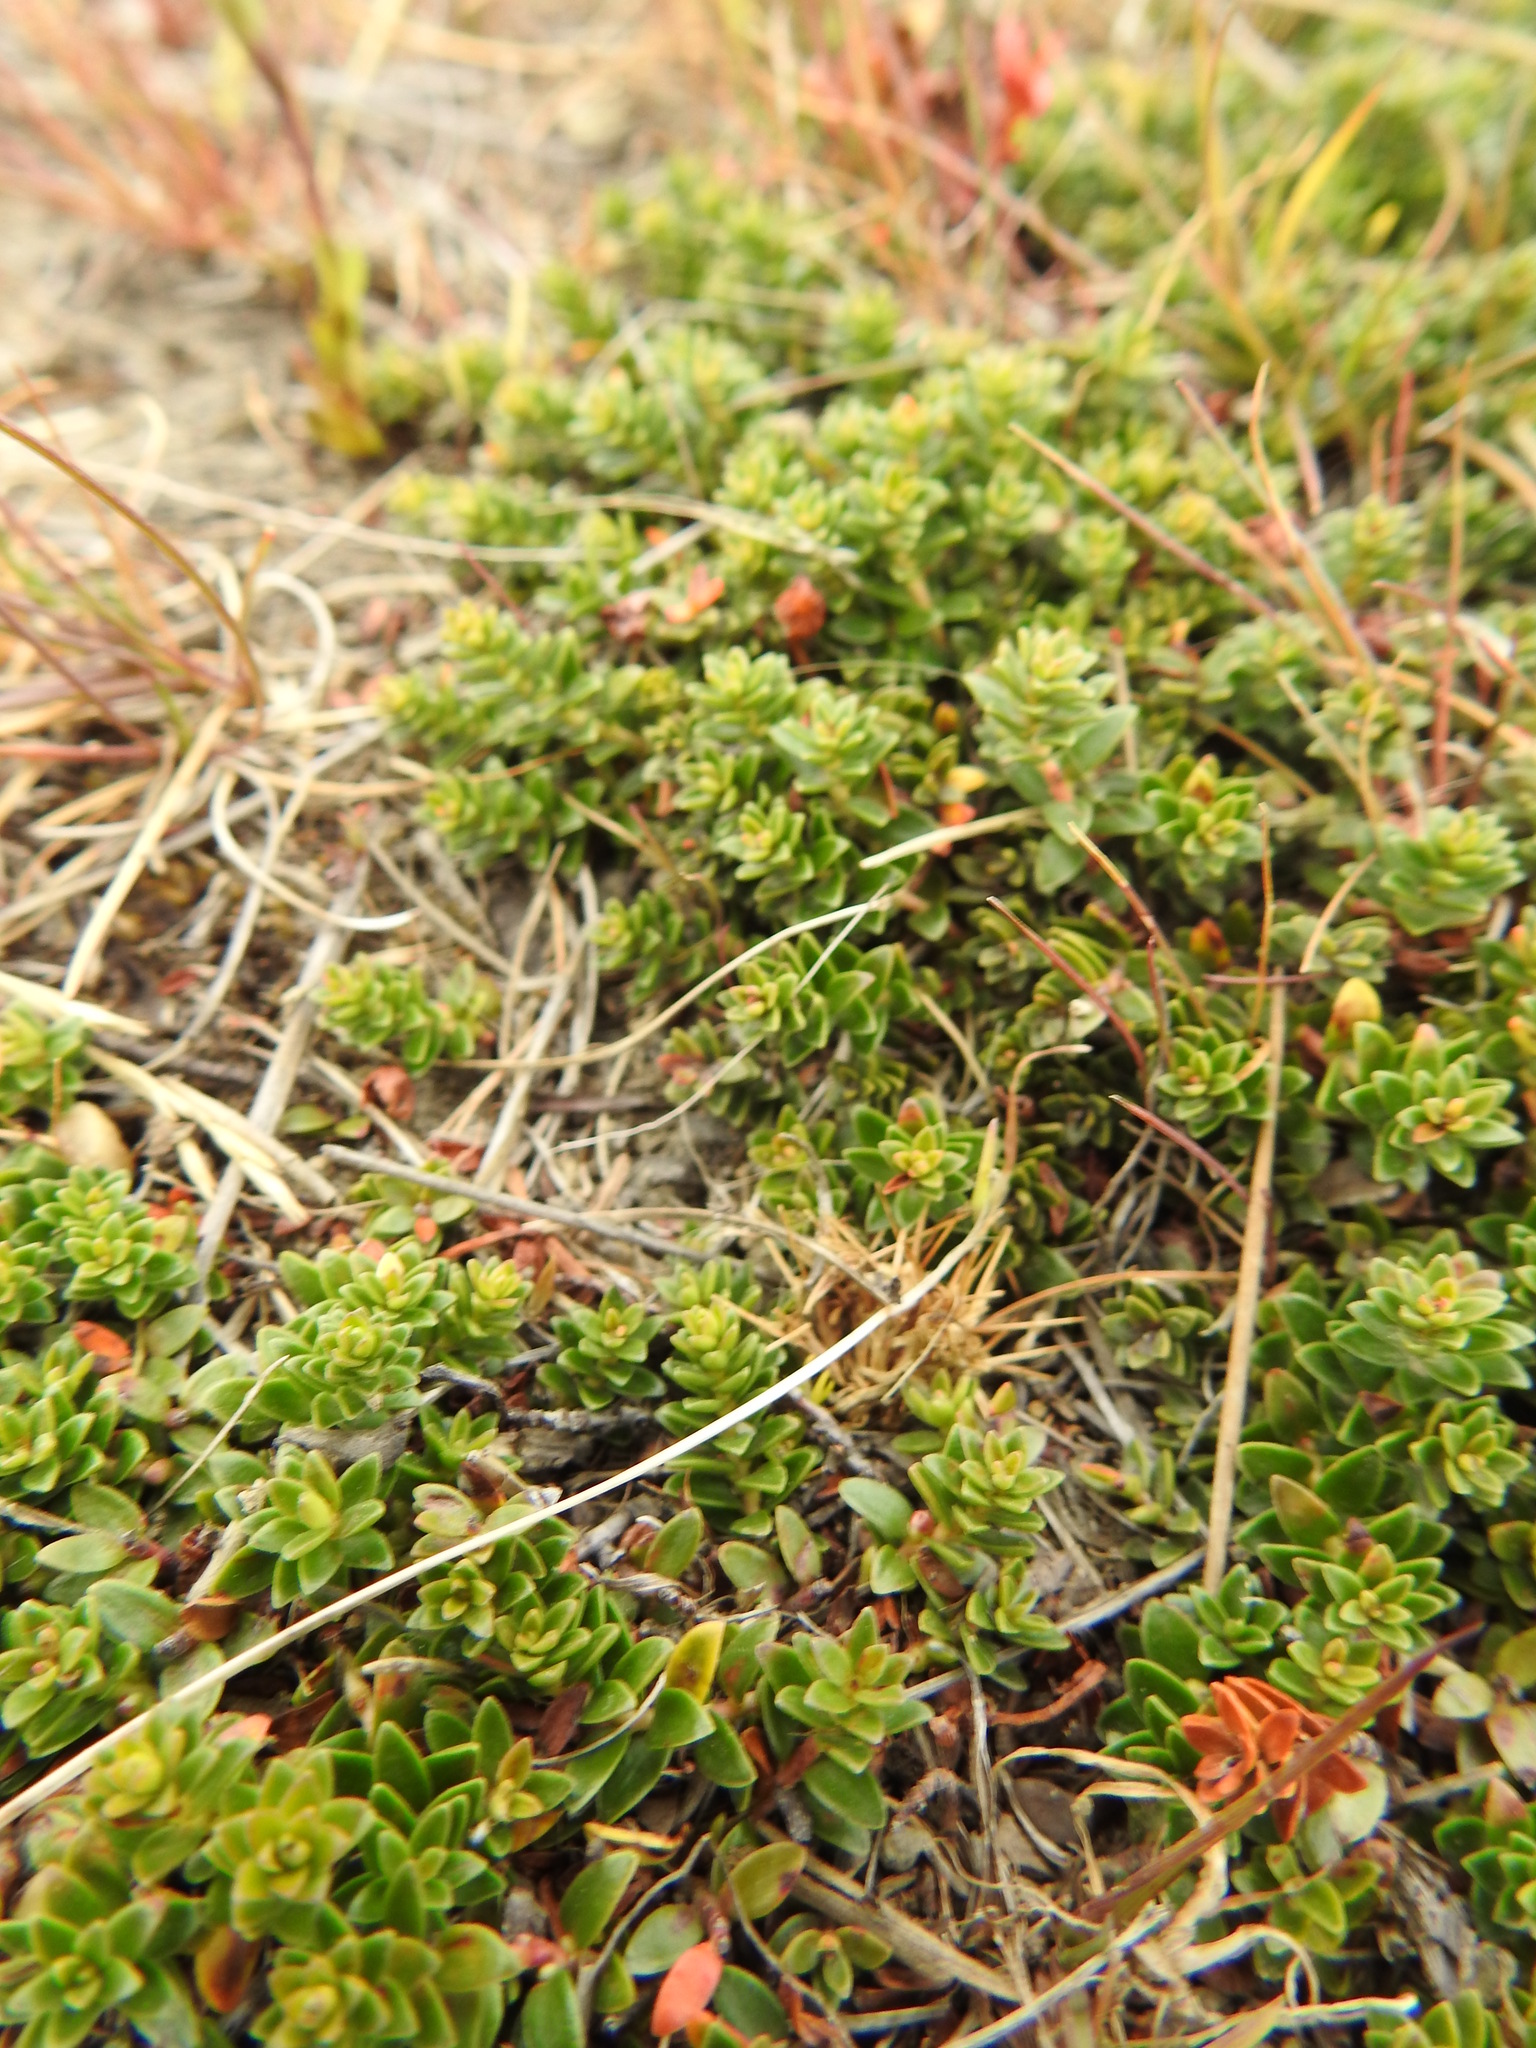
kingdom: Plantae
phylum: Tracheophyta
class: Magnoliopsida
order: Ericales
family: Ericaceae
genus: Gaultheria
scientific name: Gaultheria pumila
